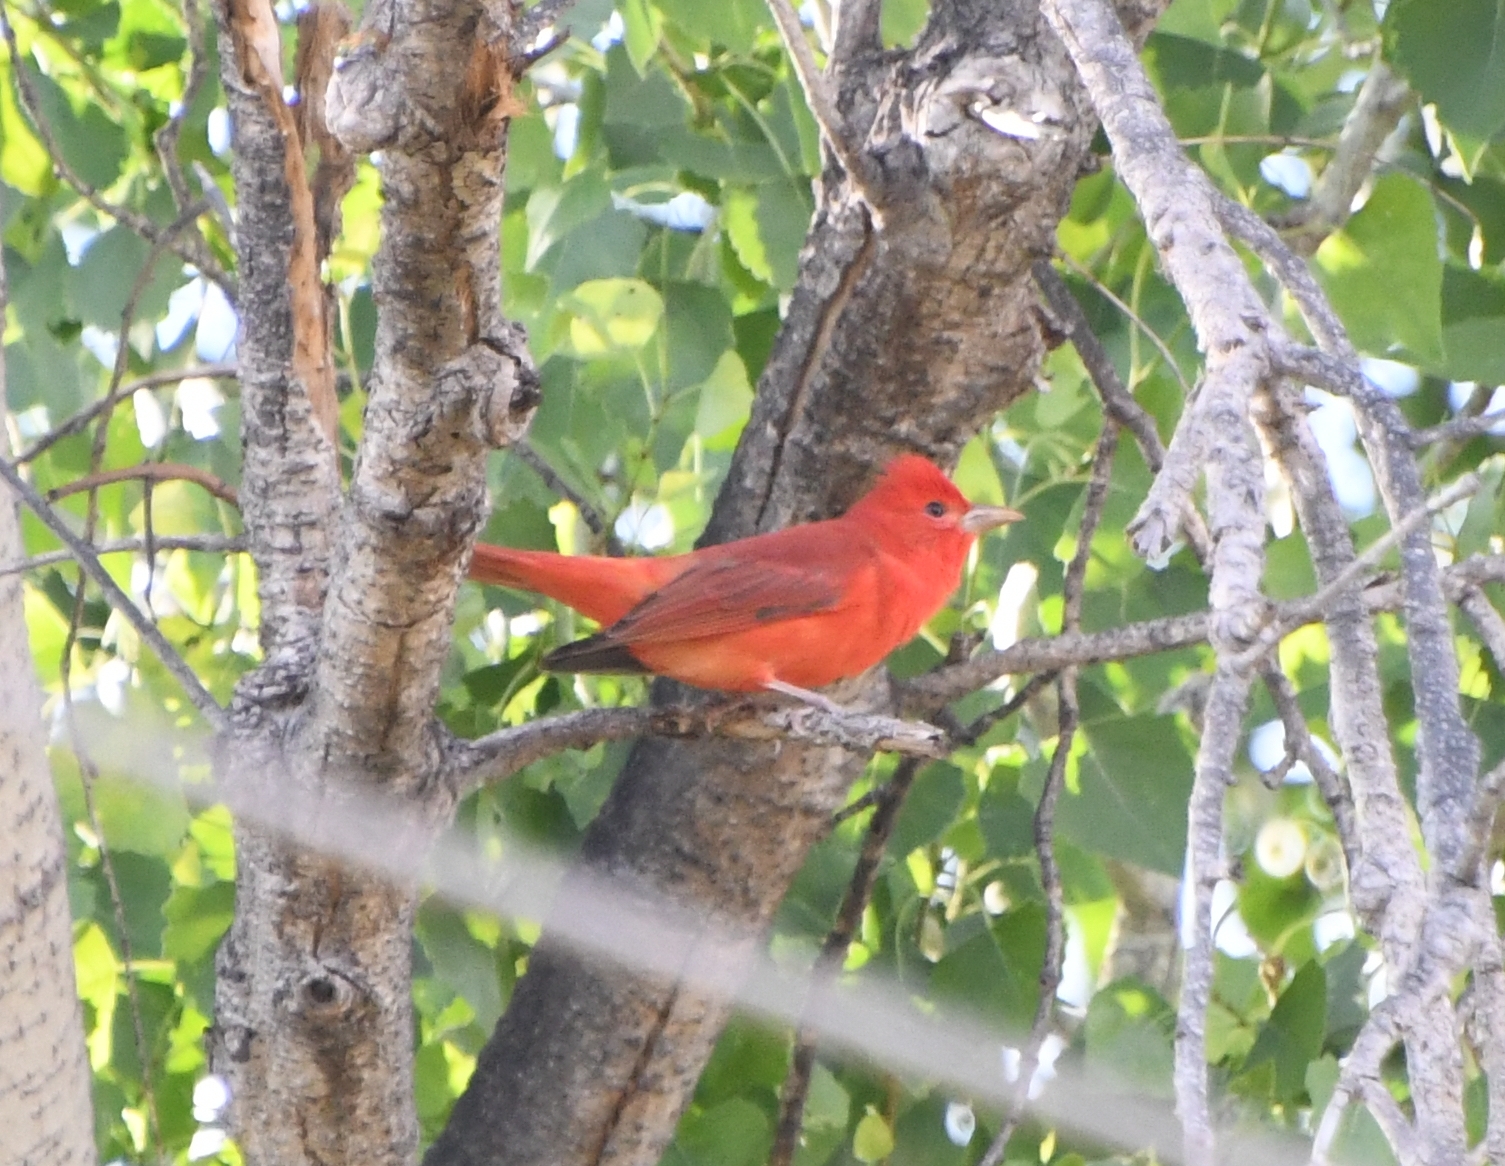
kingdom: Animalia
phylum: Chordata
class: Aves
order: Passeriformes
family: Cardinalidae
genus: Piranga
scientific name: Piranga rubra
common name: Summer tanager
